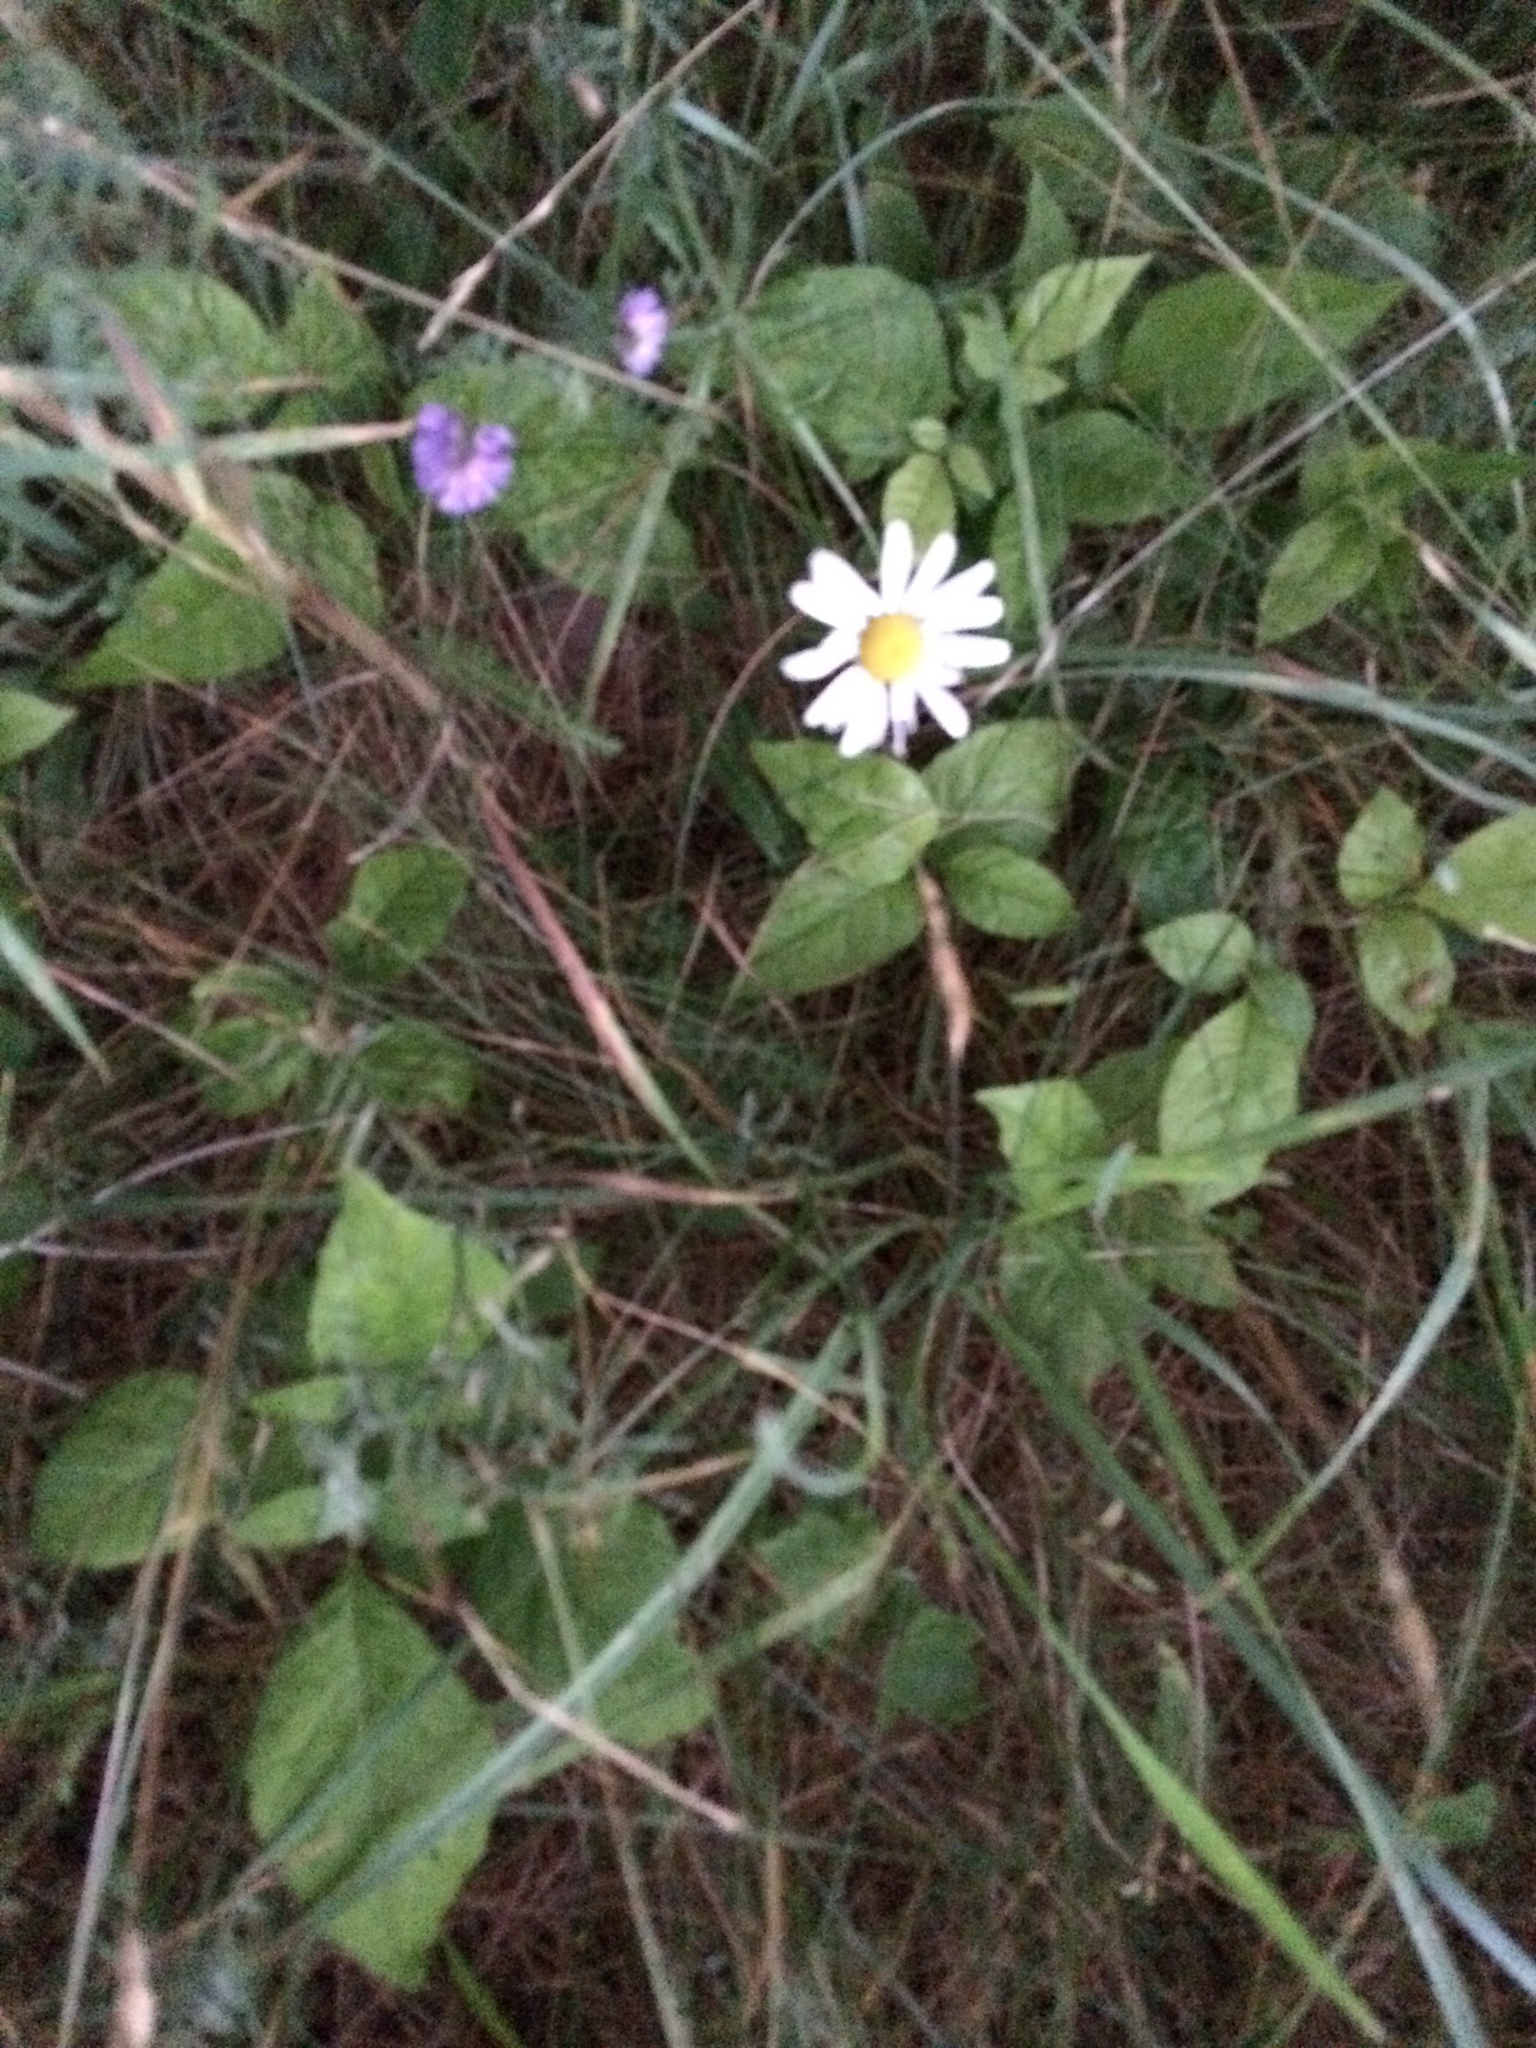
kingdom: Plantae
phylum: Tracheophyta
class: Magnoliopsida
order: Asterales
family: Asteraceae
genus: Leucanthemum
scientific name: Leucanthemum vulgare
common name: Oxeye daisy
